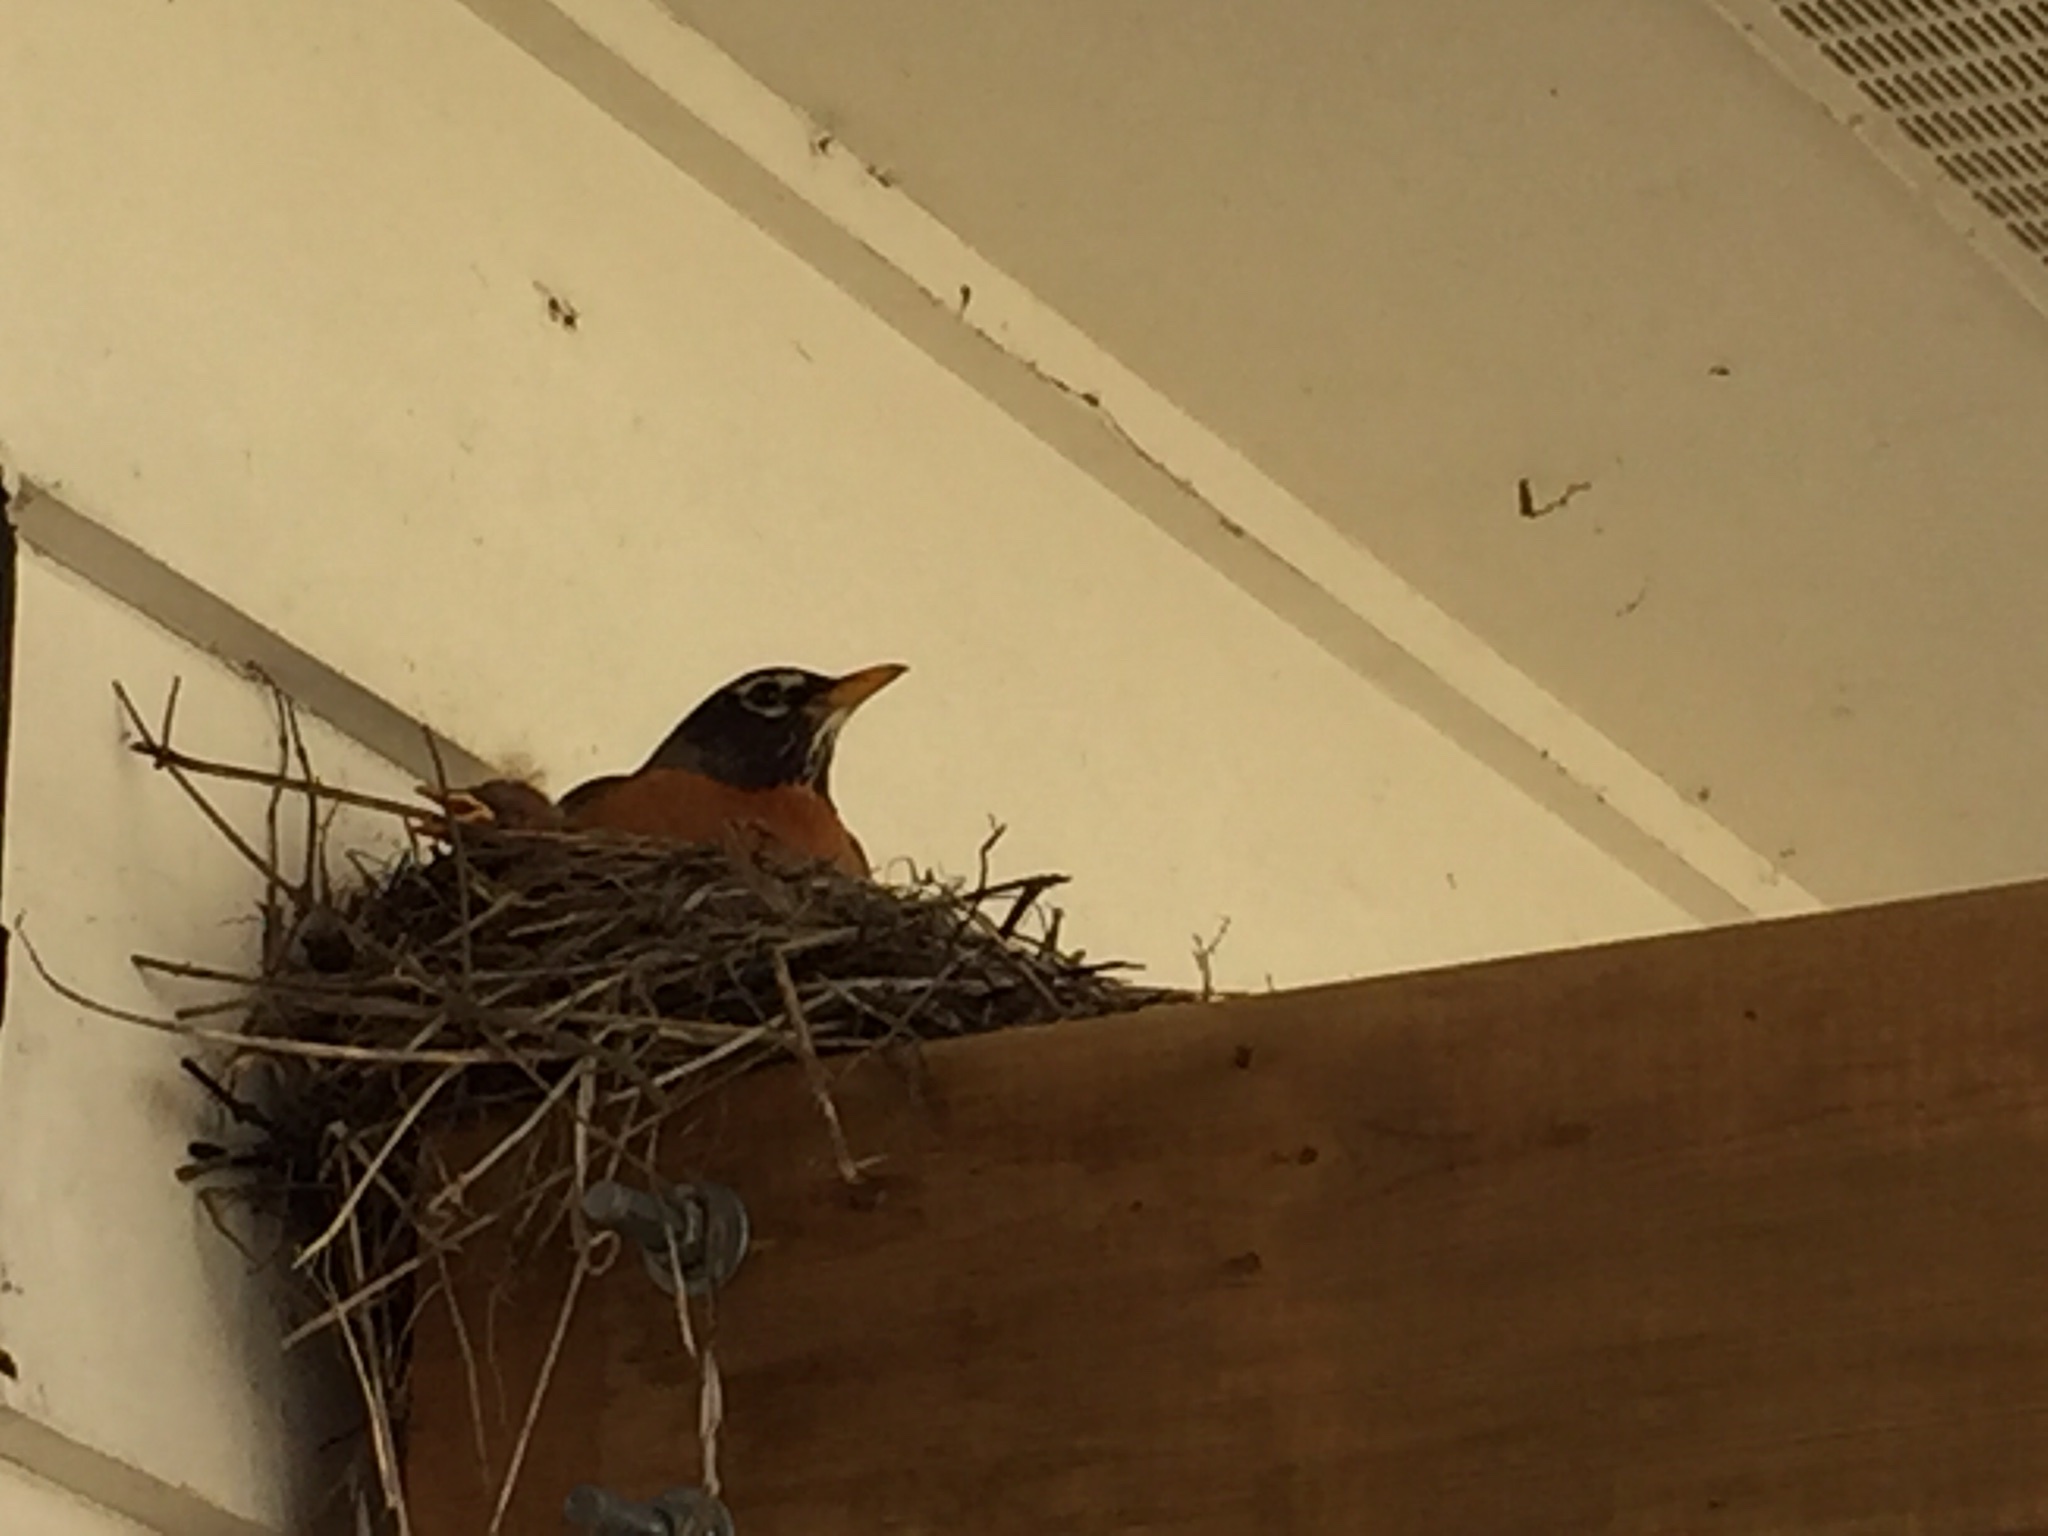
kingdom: Animalia
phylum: Chordata
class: Aves
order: Passeriformes
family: Turdidae
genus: Turdus
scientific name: Turdus migratorius
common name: American robin
